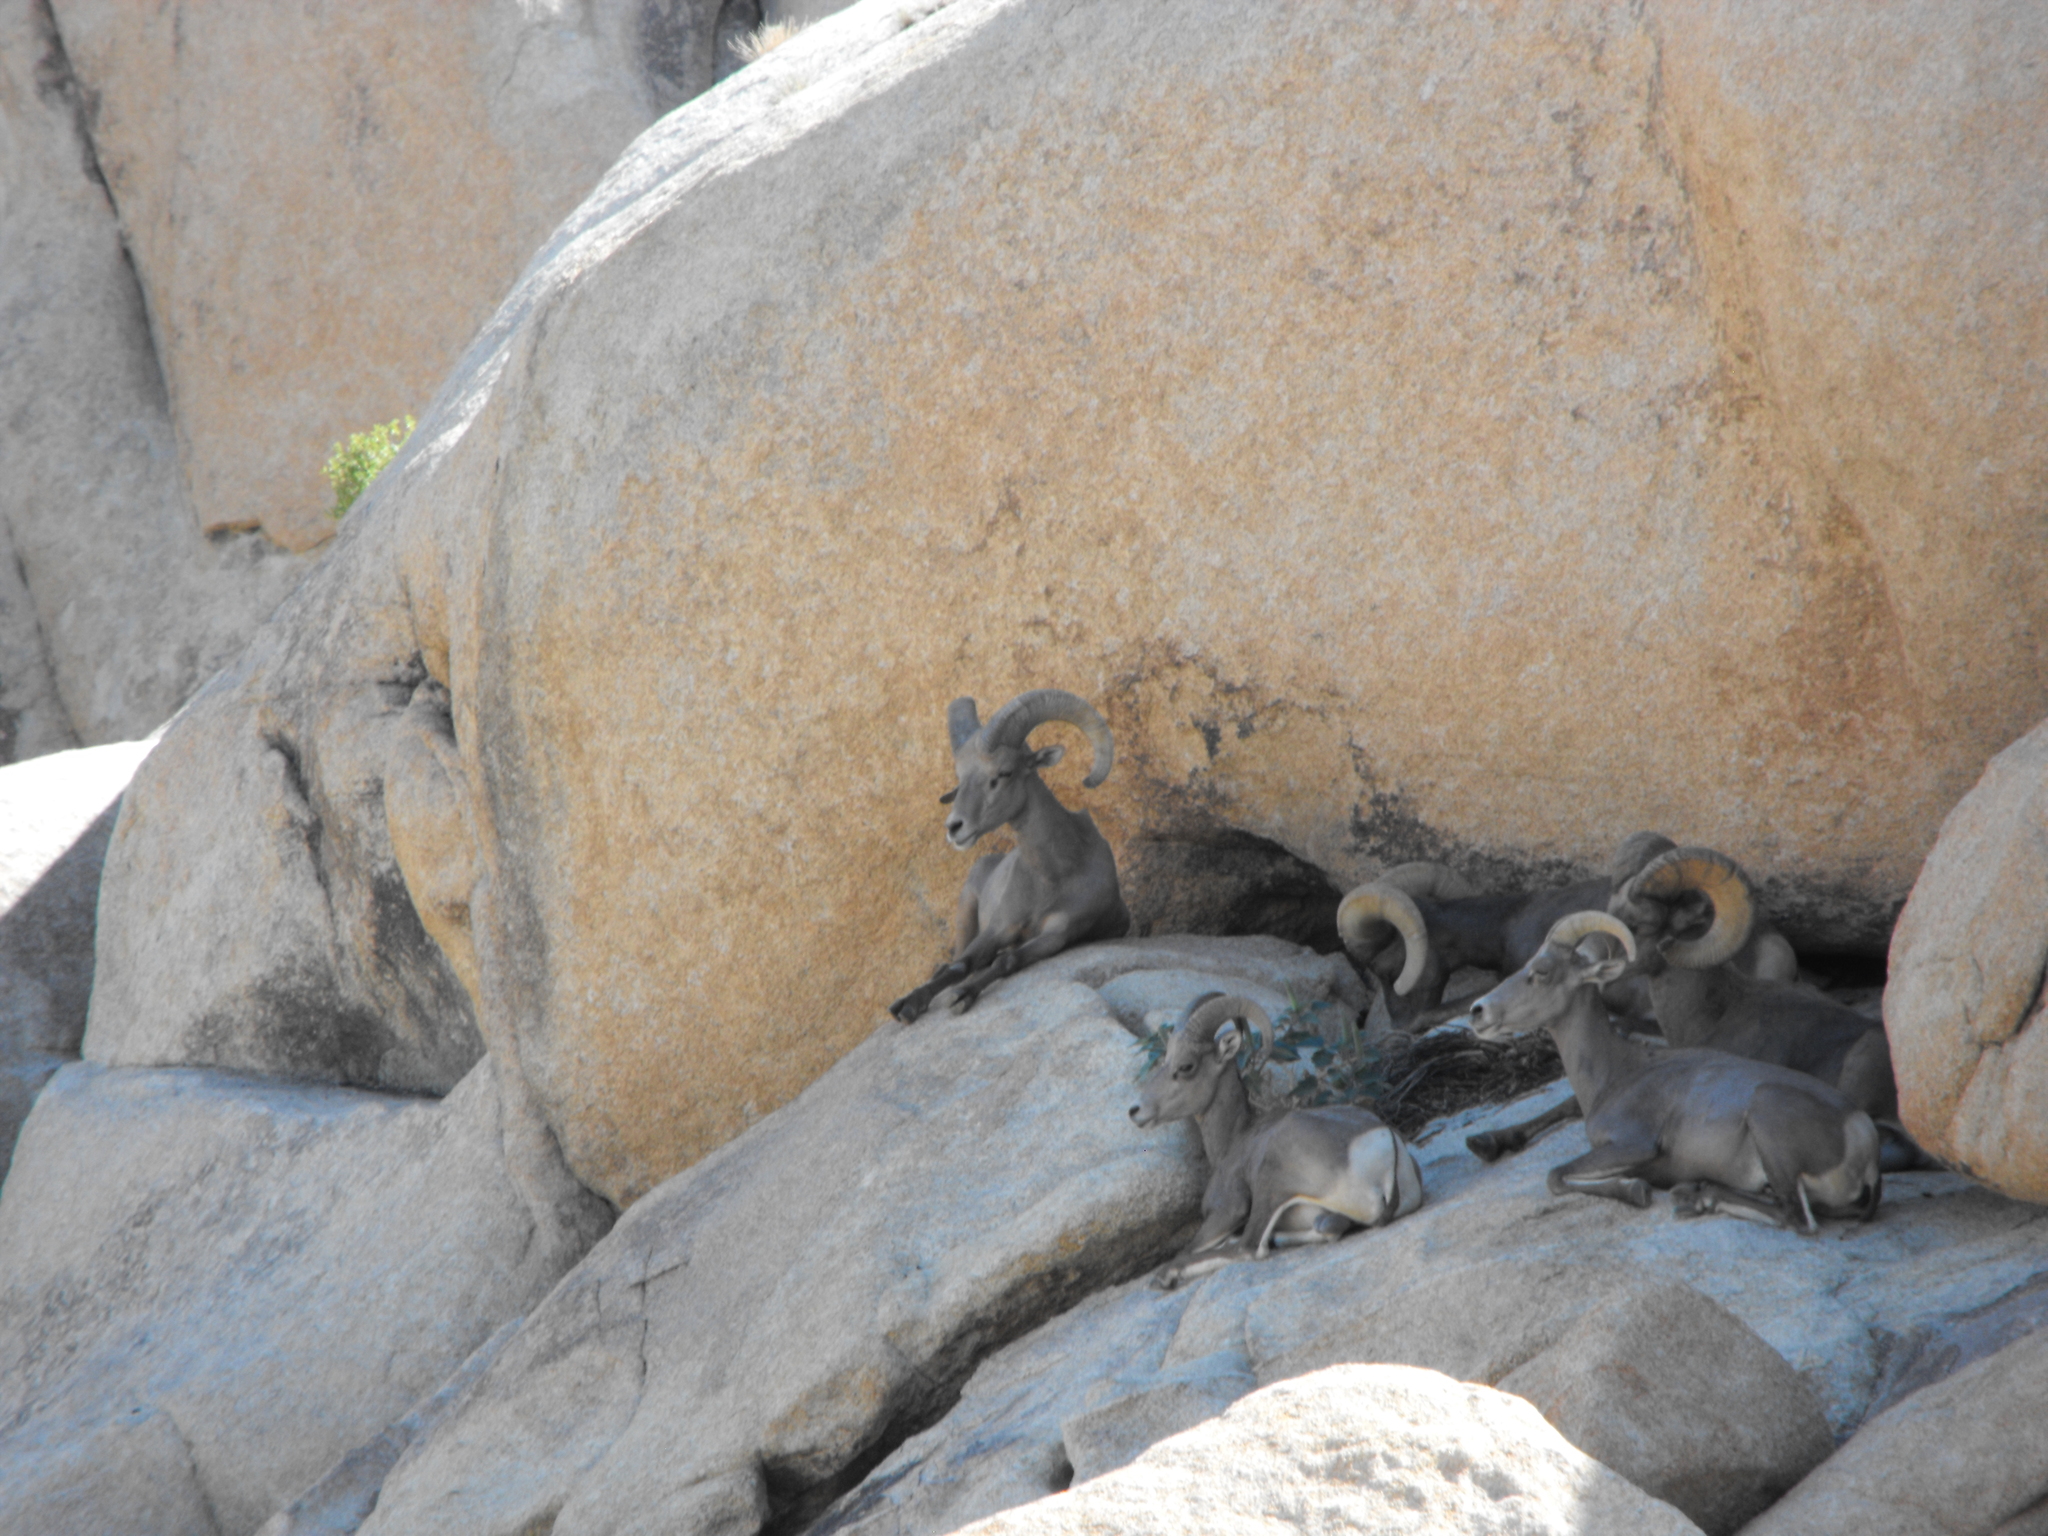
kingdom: Animalia
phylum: Chordata
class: Mammalia
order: Artiodactyla
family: Bovidae
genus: Ovis
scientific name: Ovis canadensis
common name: Bighorn sheep
